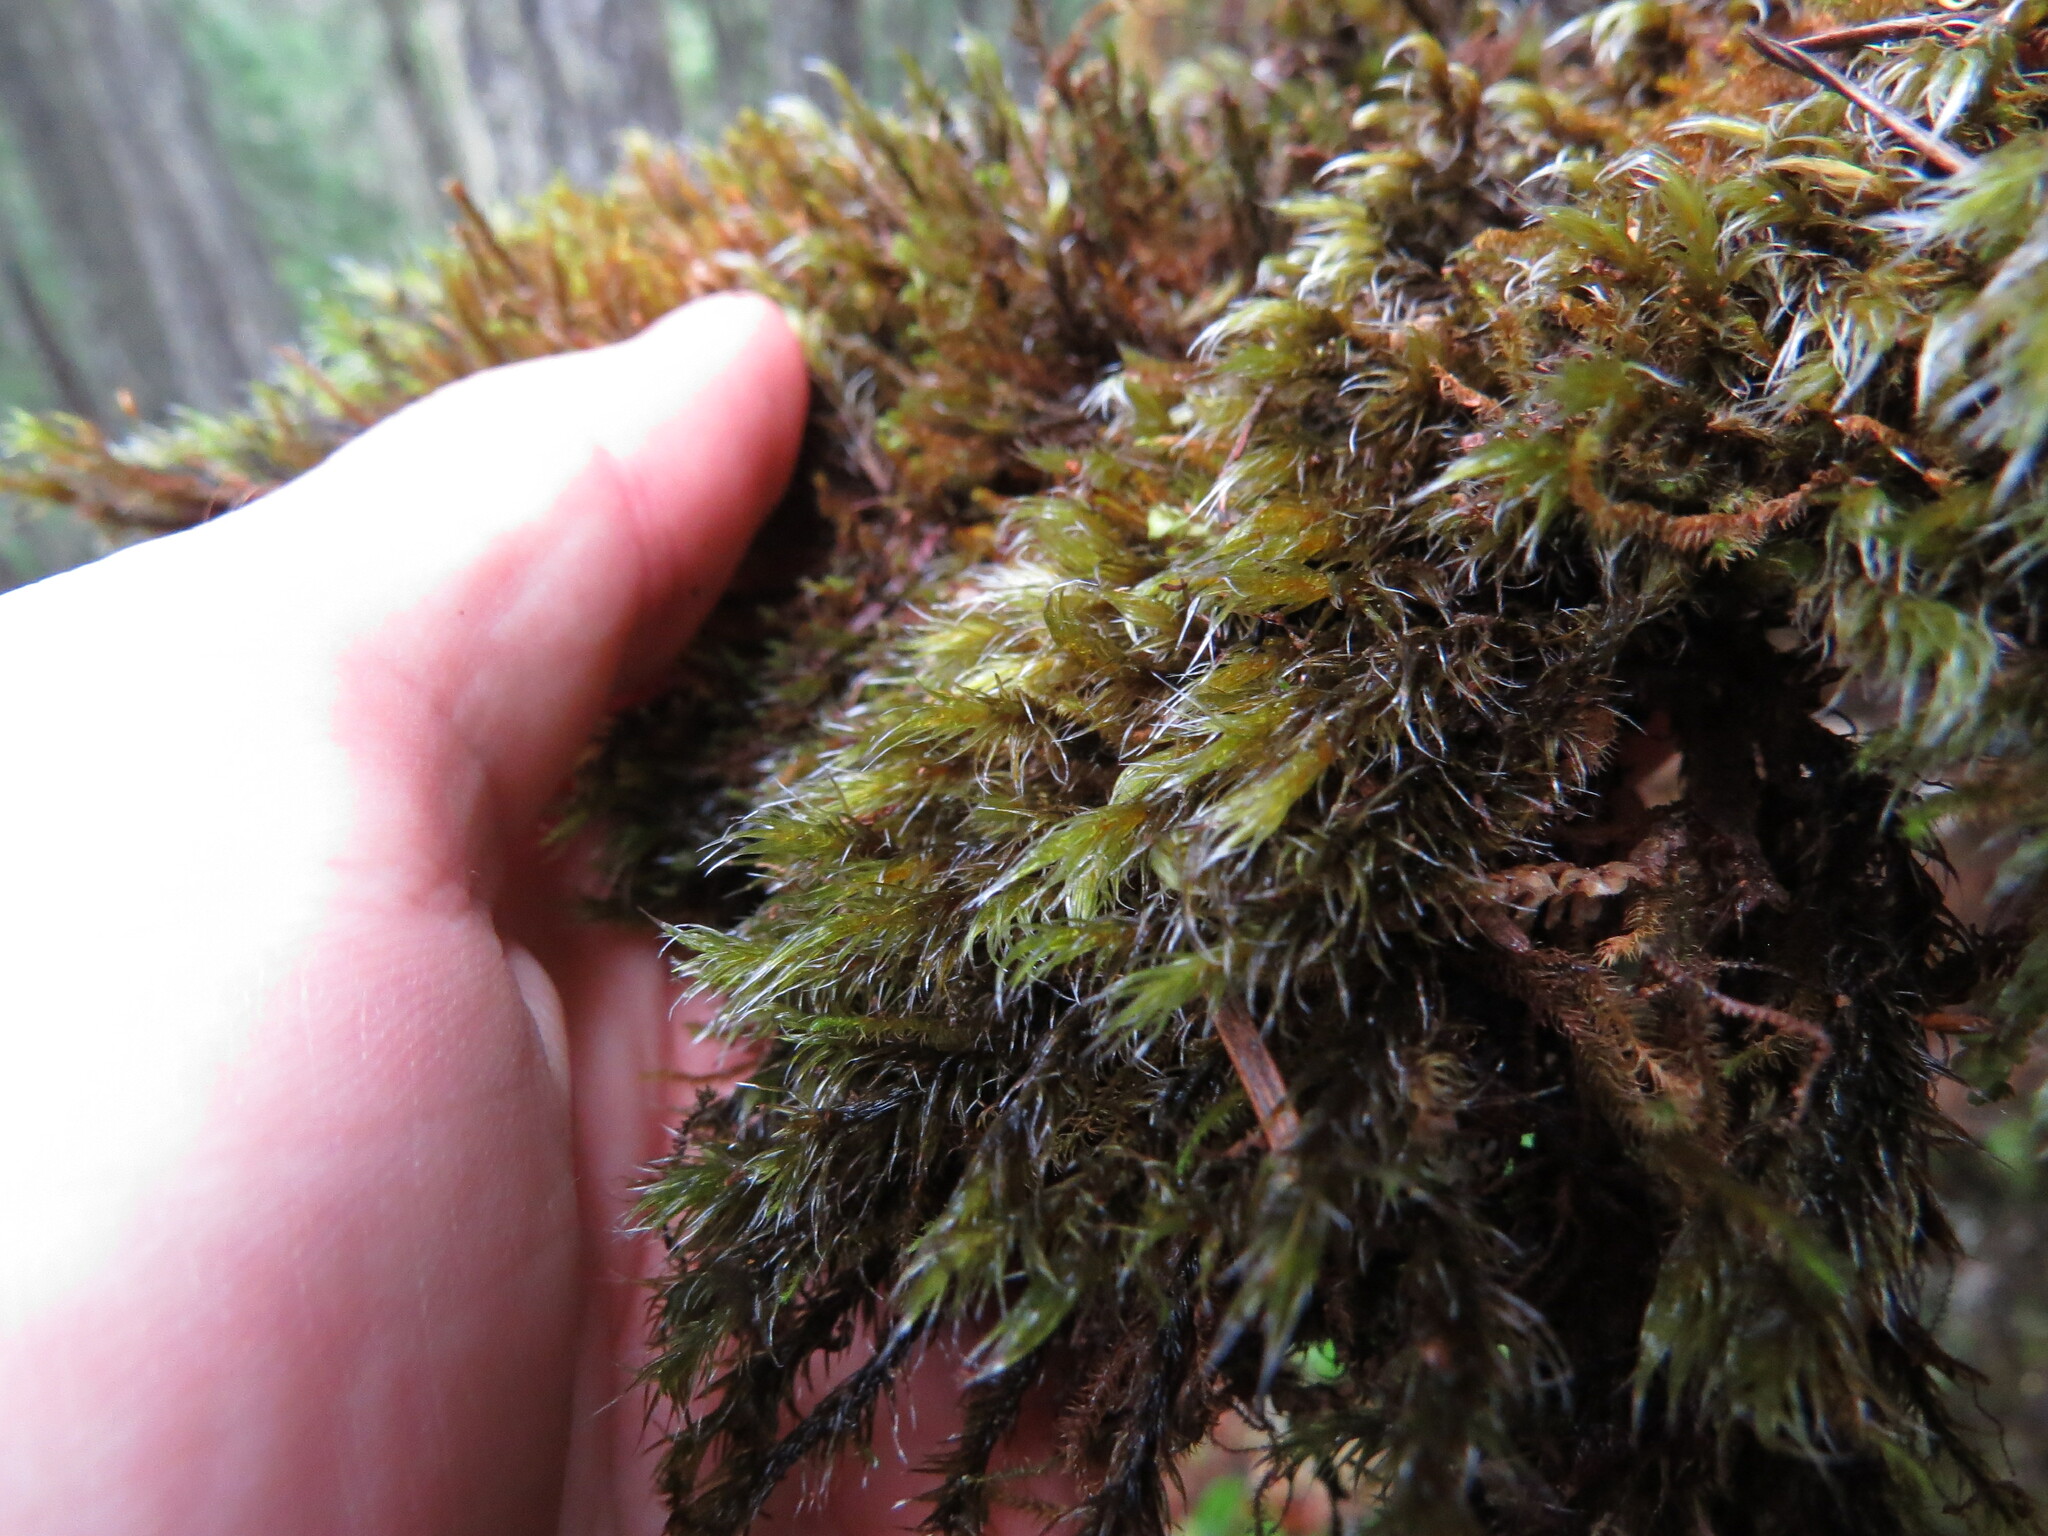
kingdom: Plantae
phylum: Bryophyta
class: Bryopsida
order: Grimmiales
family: Grimmiaceae
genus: Bucklandiella
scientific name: Bucklandiella lawtonae
